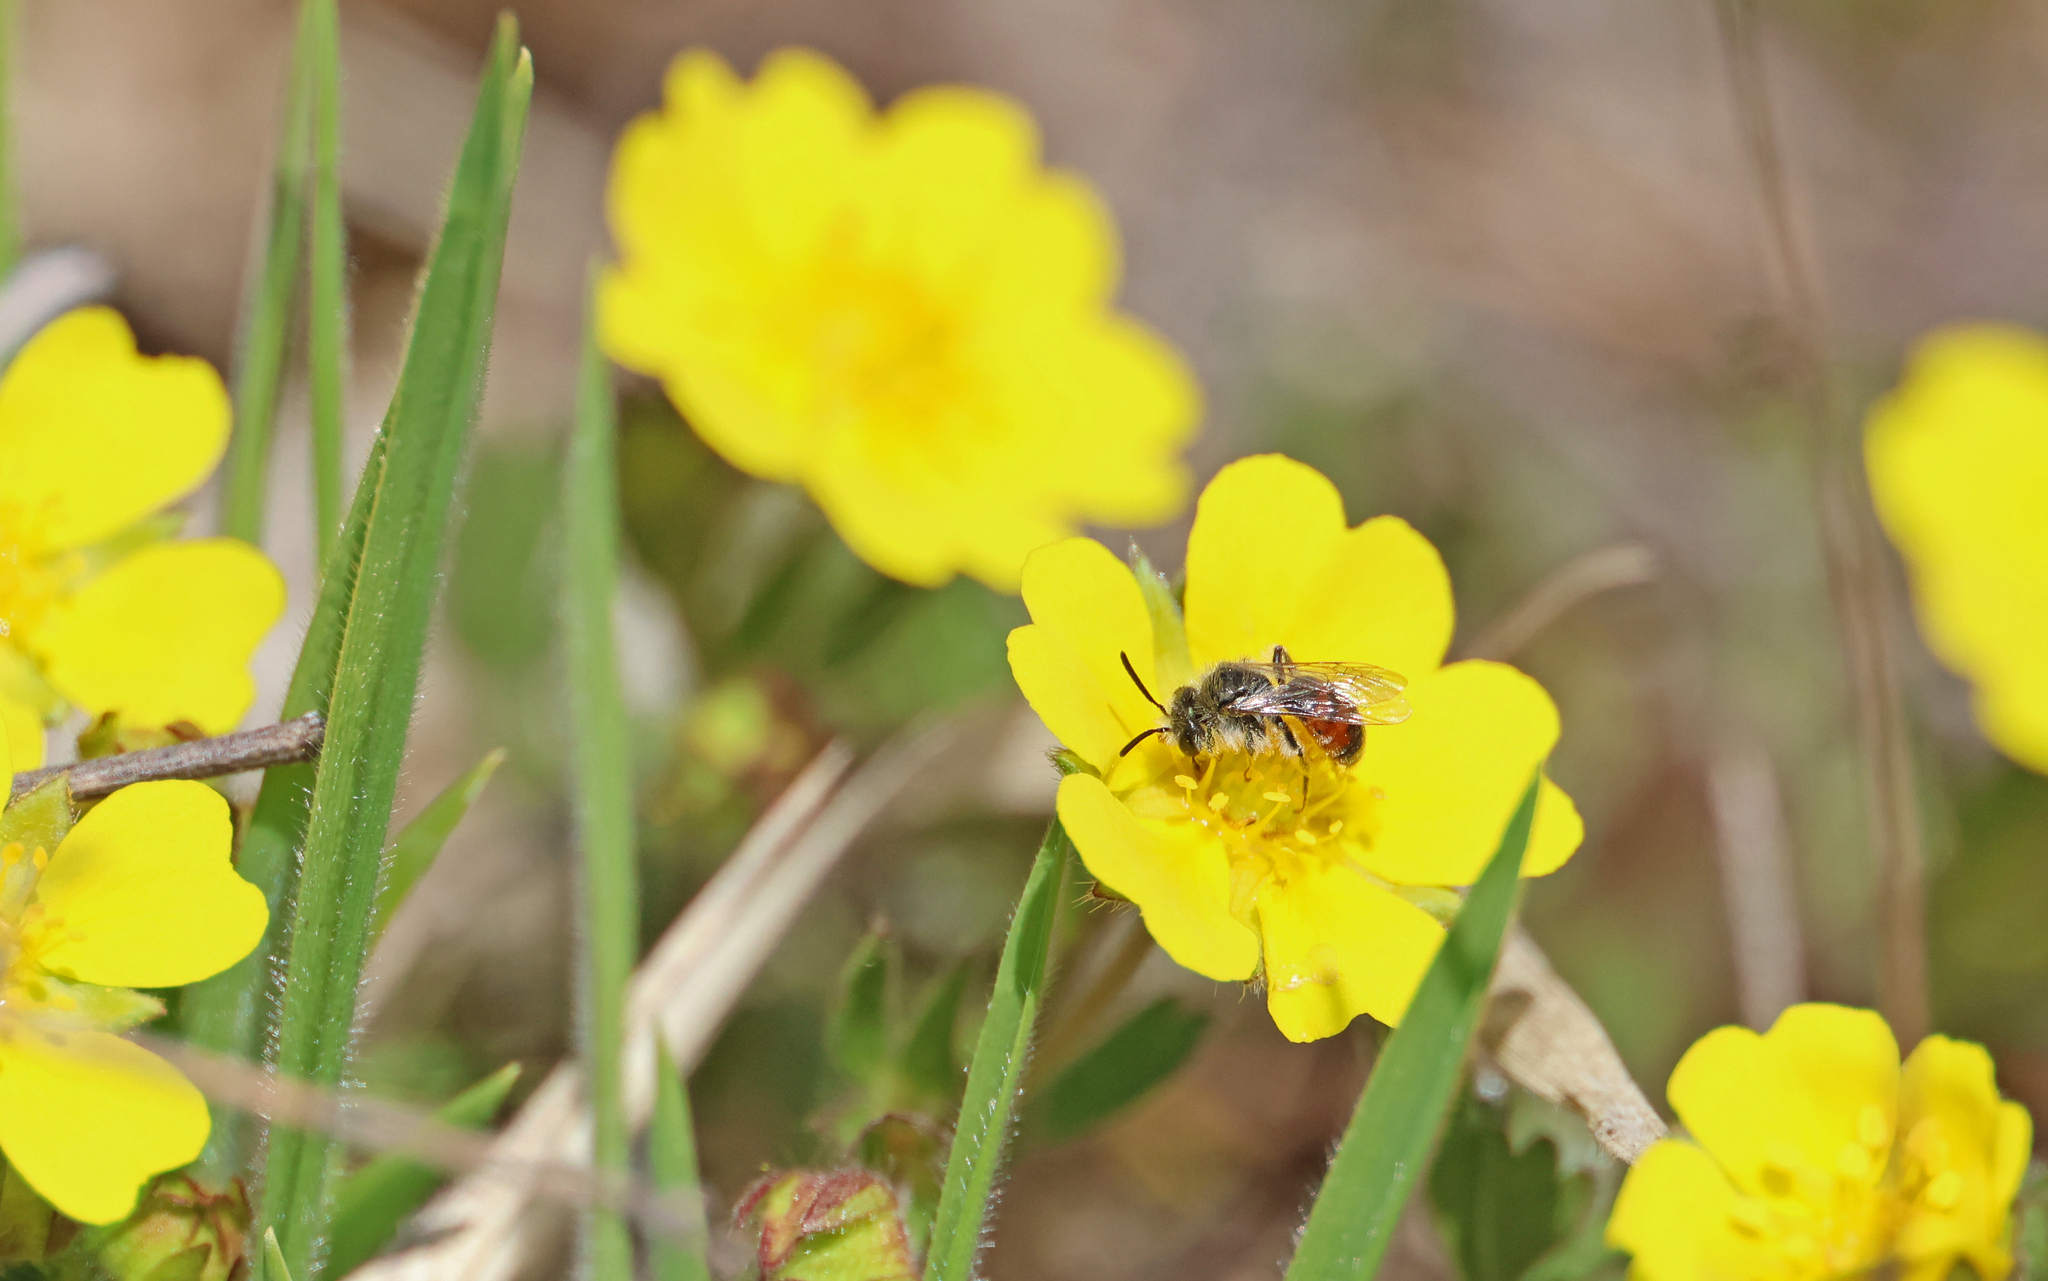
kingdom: Animalia
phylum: Arthropoda
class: Insecta
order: Hymenoptera
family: Andrenidae
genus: Andrena
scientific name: Andrena potentillae
